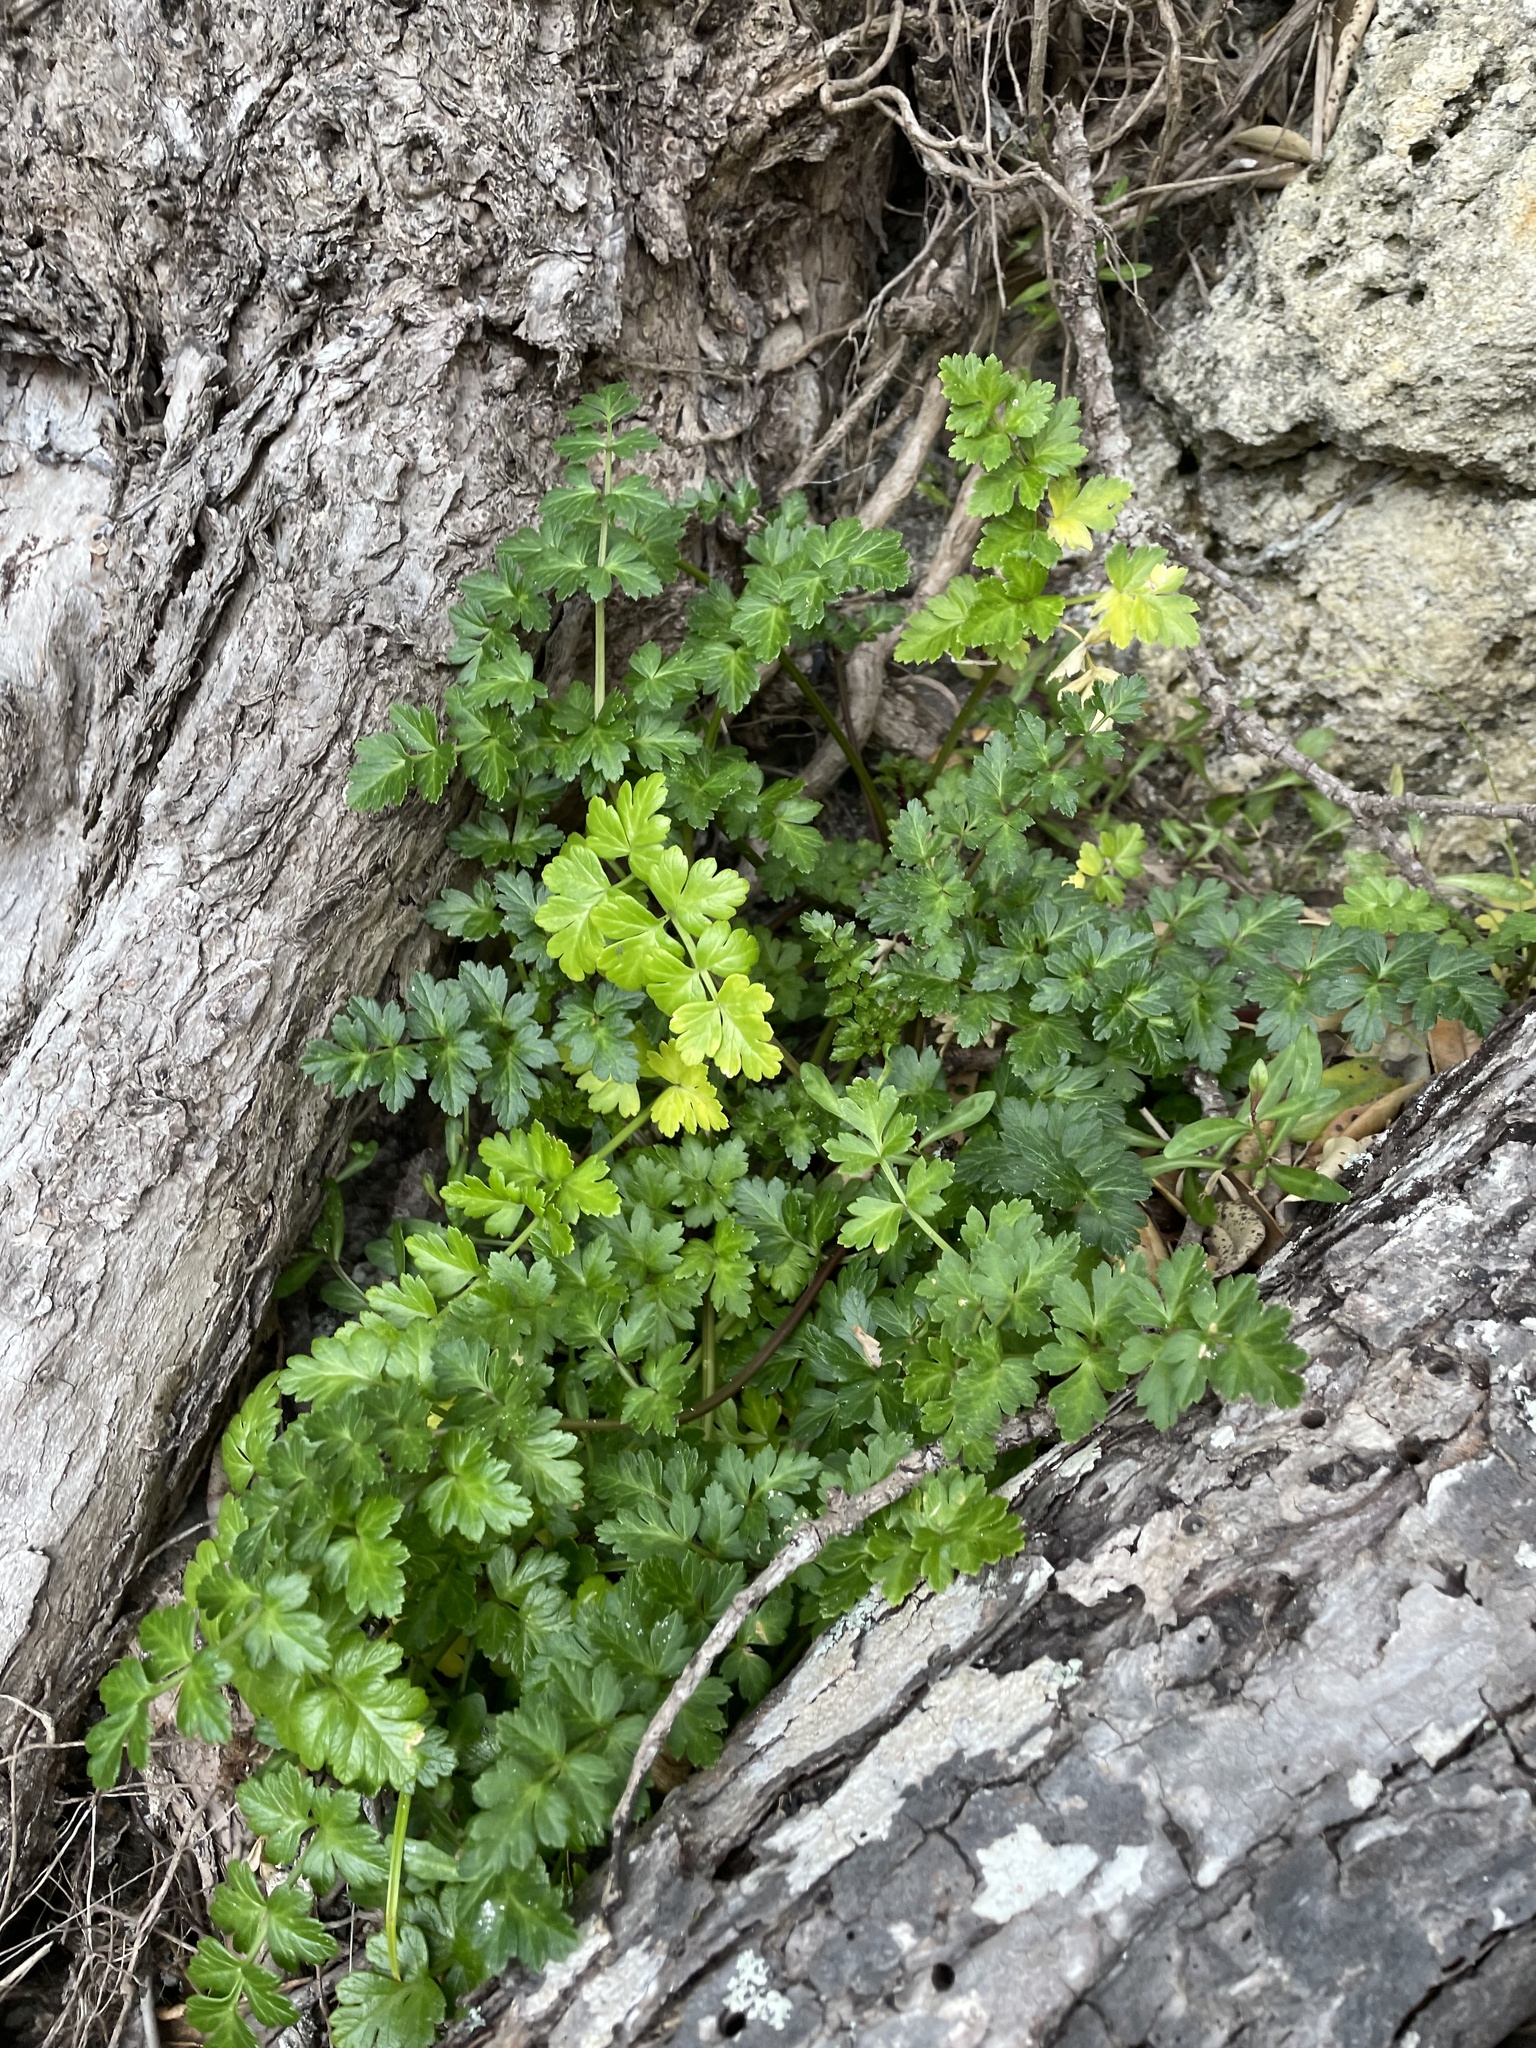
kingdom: Plantae
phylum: Tracheophyta
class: Magnoliopsida
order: Apiales
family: Apiaceae
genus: Apium
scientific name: Apium prostratum
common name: Prostrate marshwort
